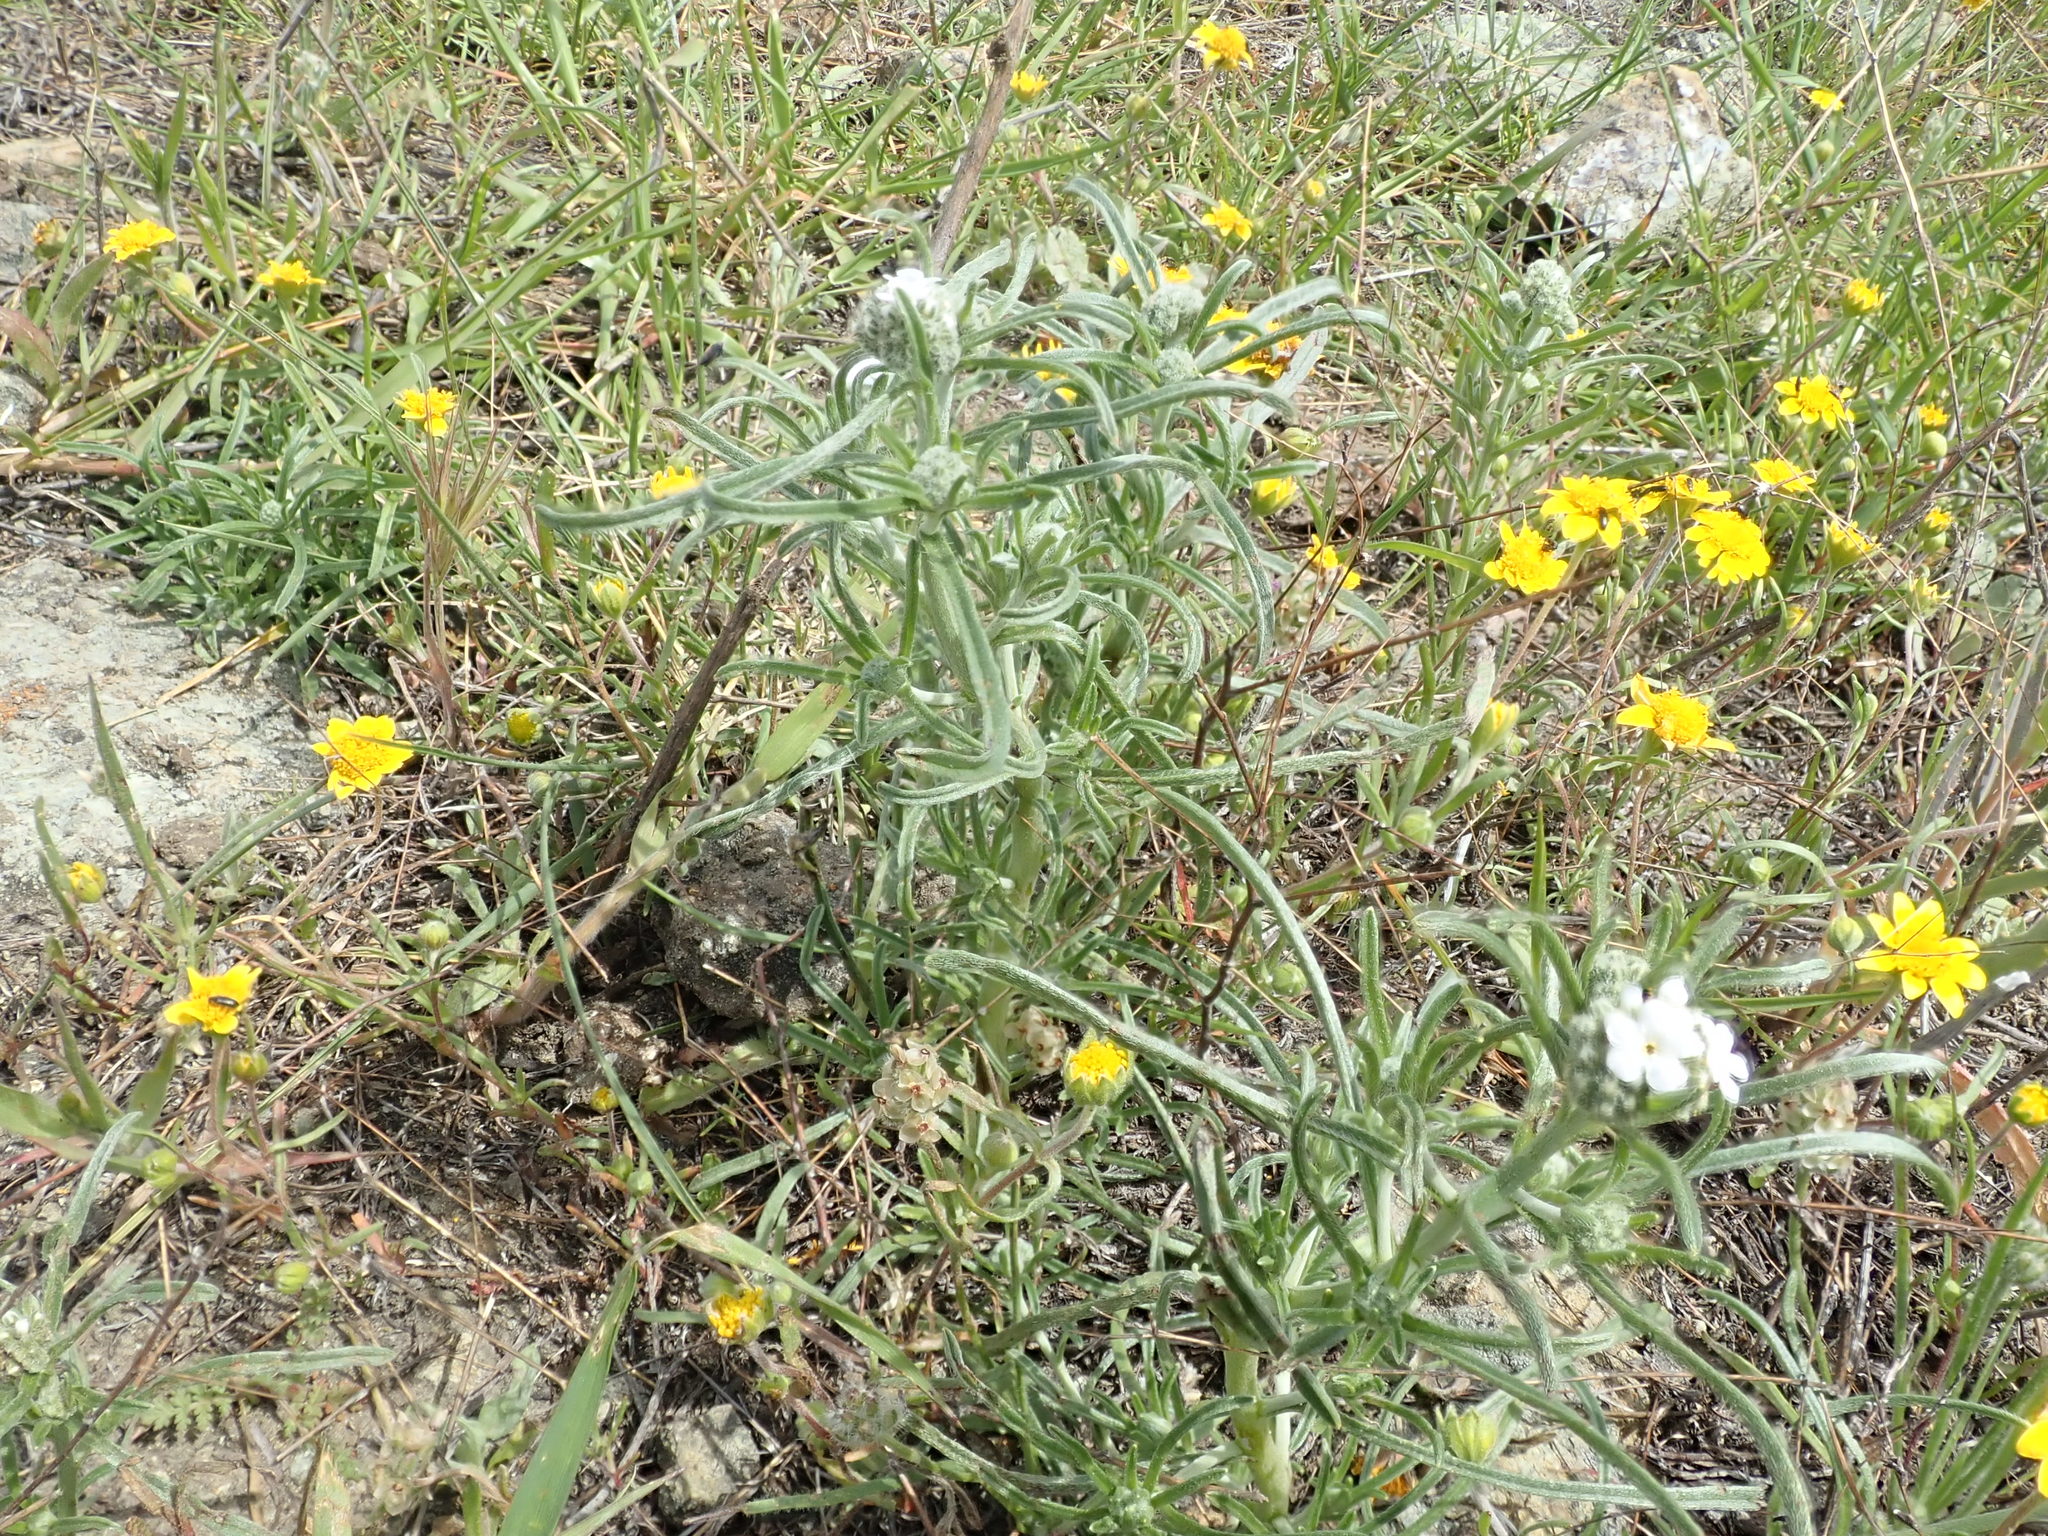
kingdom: Plantae
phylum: Tracheophyta
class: Magnoliopsida
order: Boraginales
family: Boraginaceae
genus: Cryptantha
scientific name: Cryptantha flaccida
